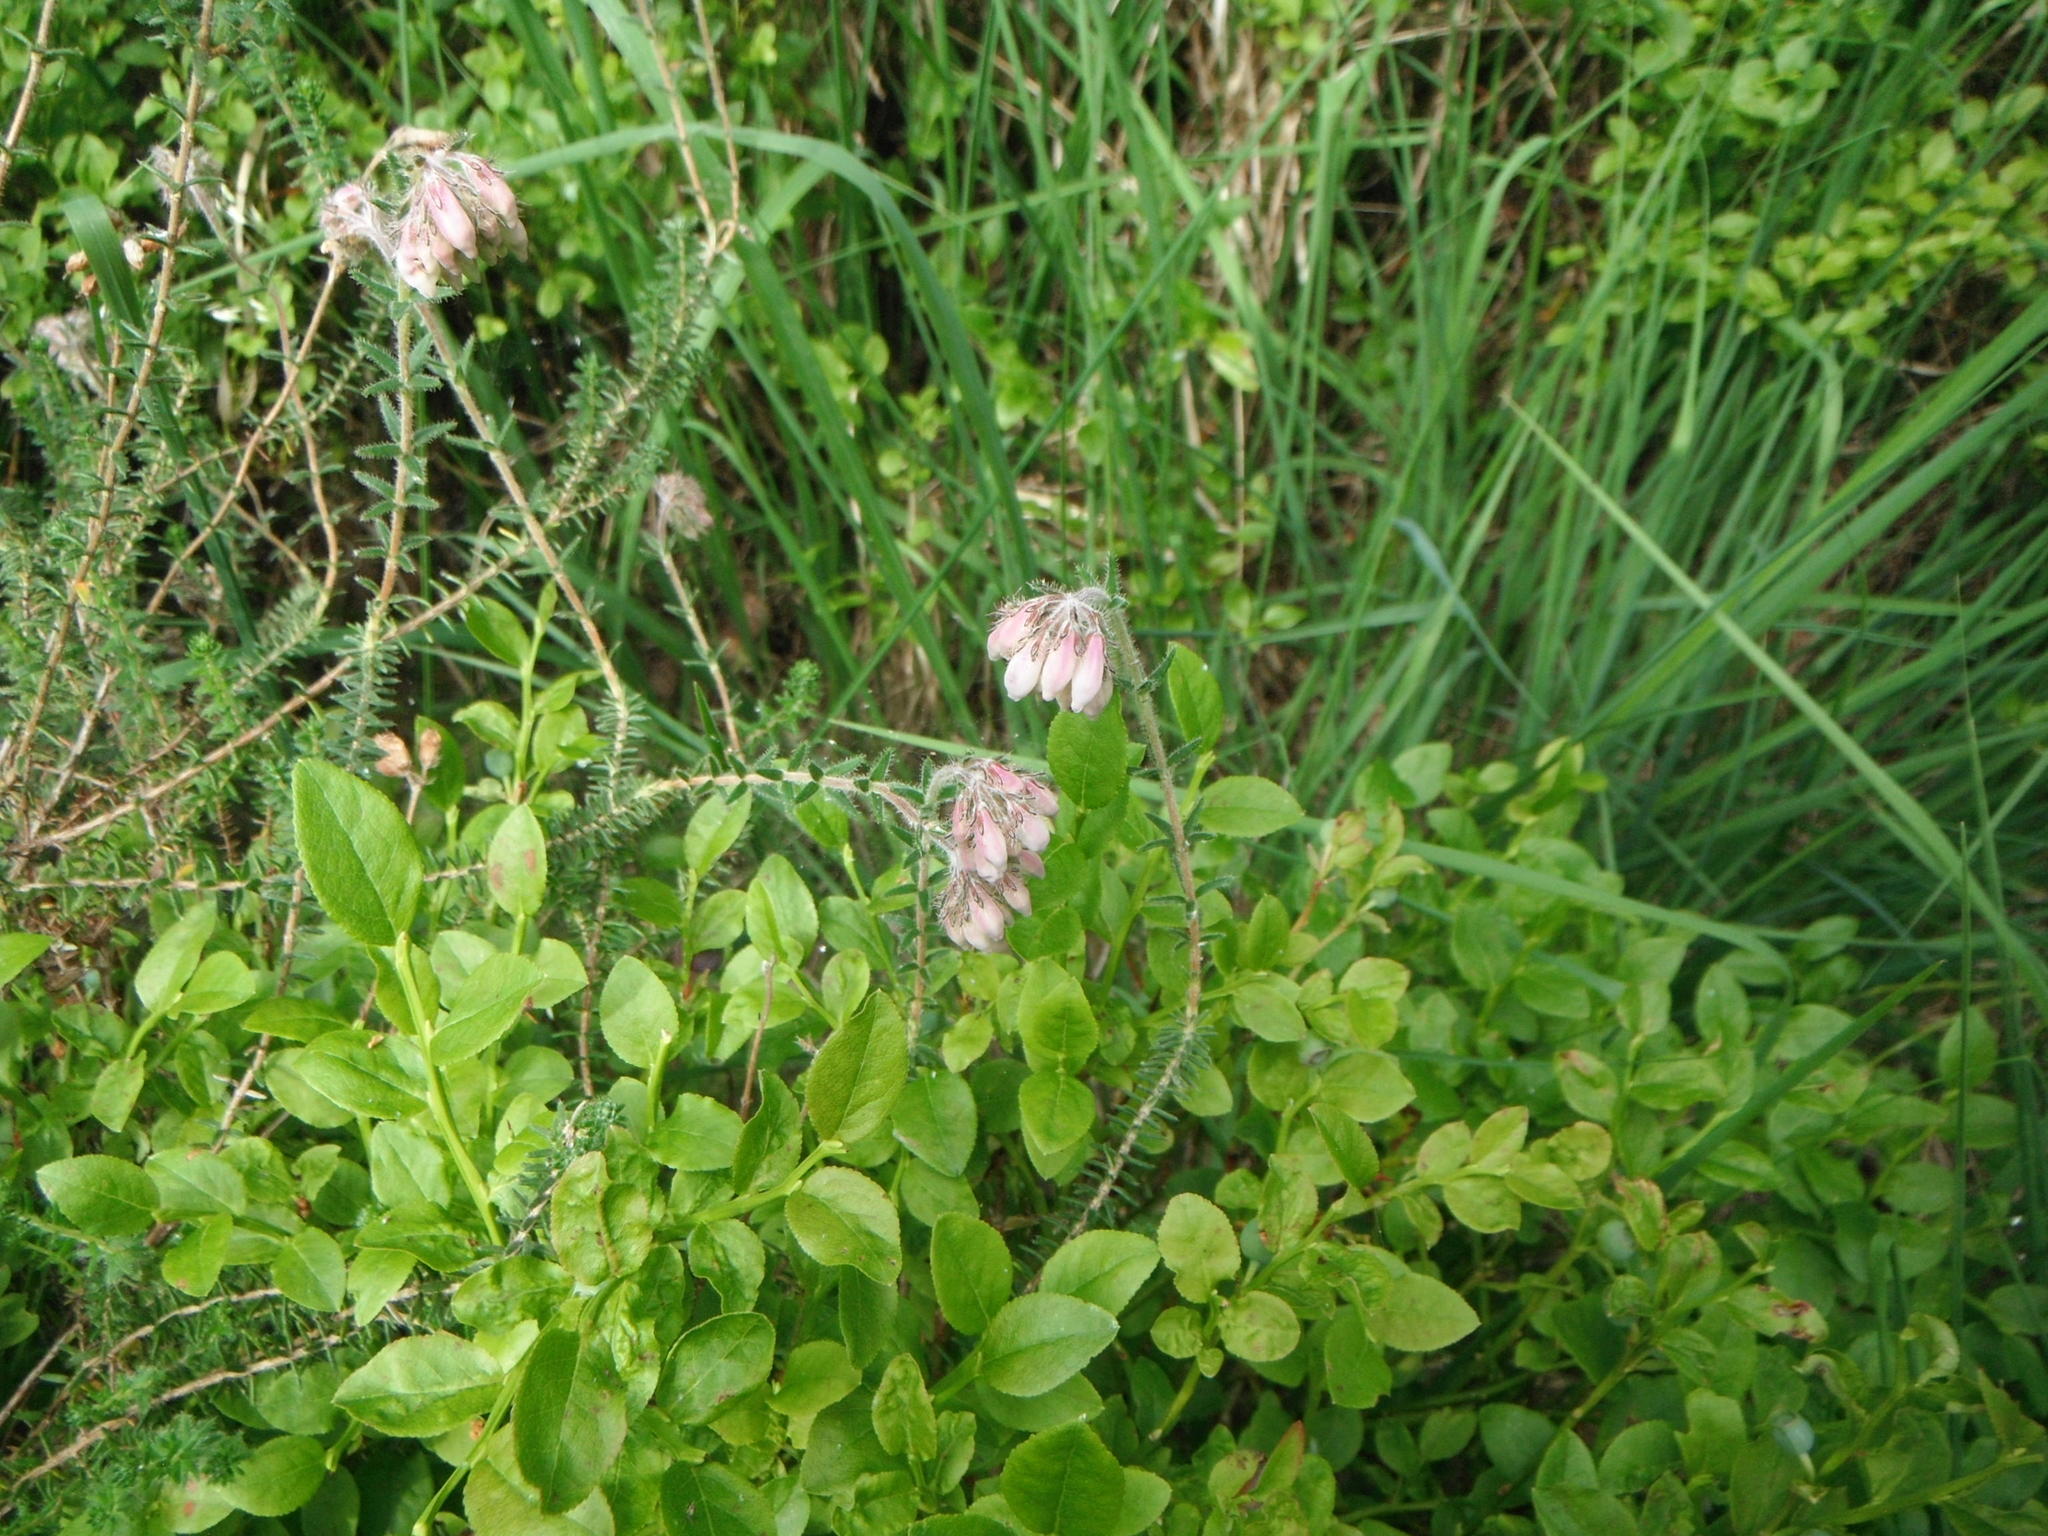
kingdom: Plantae
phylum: Tracheophyta
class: Magnoliopsida
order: Ericales
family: Ericaceae
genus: Erica
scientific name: Erica tetralix
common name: Cross-leaved heath
